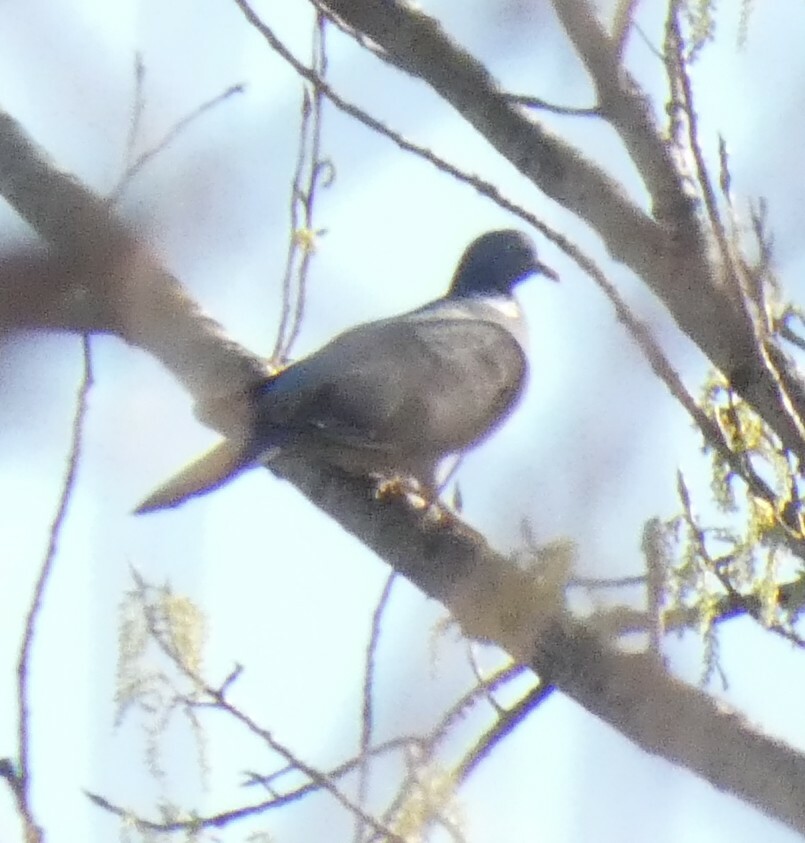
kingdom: Animalia
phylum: Chordata
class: Aves
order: Columbiformes
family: Columbidae
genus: Columba
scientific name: Columba palumbus
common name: Common wood pigeon
